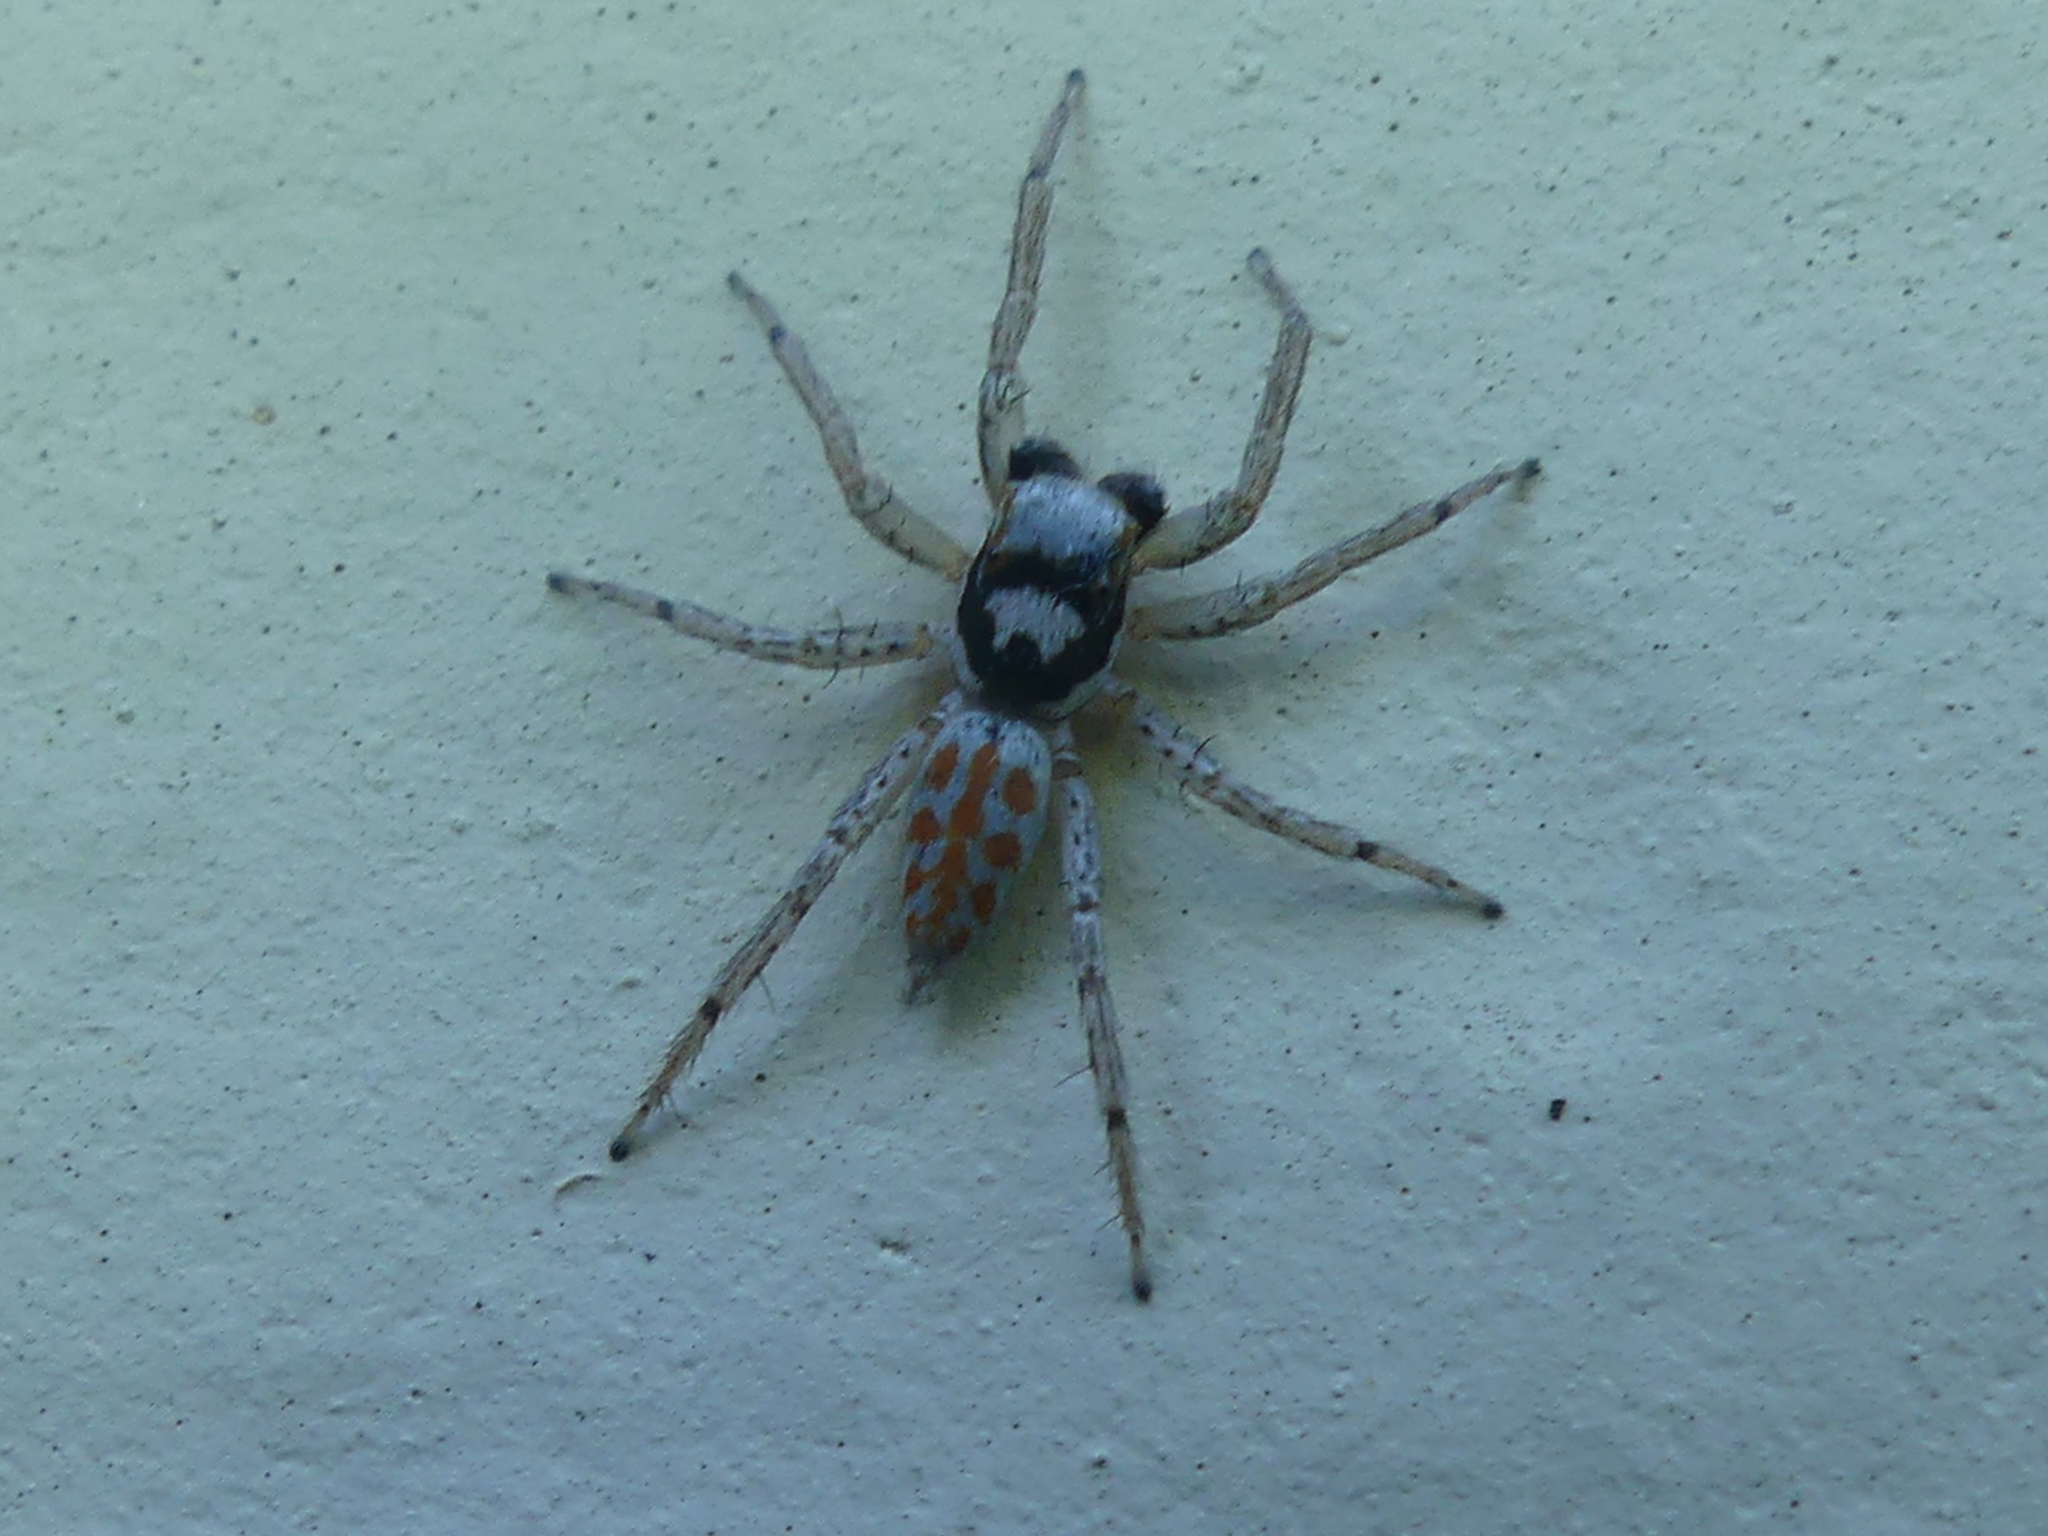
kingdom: Animalia
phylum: Arthropoda
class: Arachnida
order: Araneae
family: Salticidae
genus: Paramaevia
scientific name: Paramaevia poultoni
